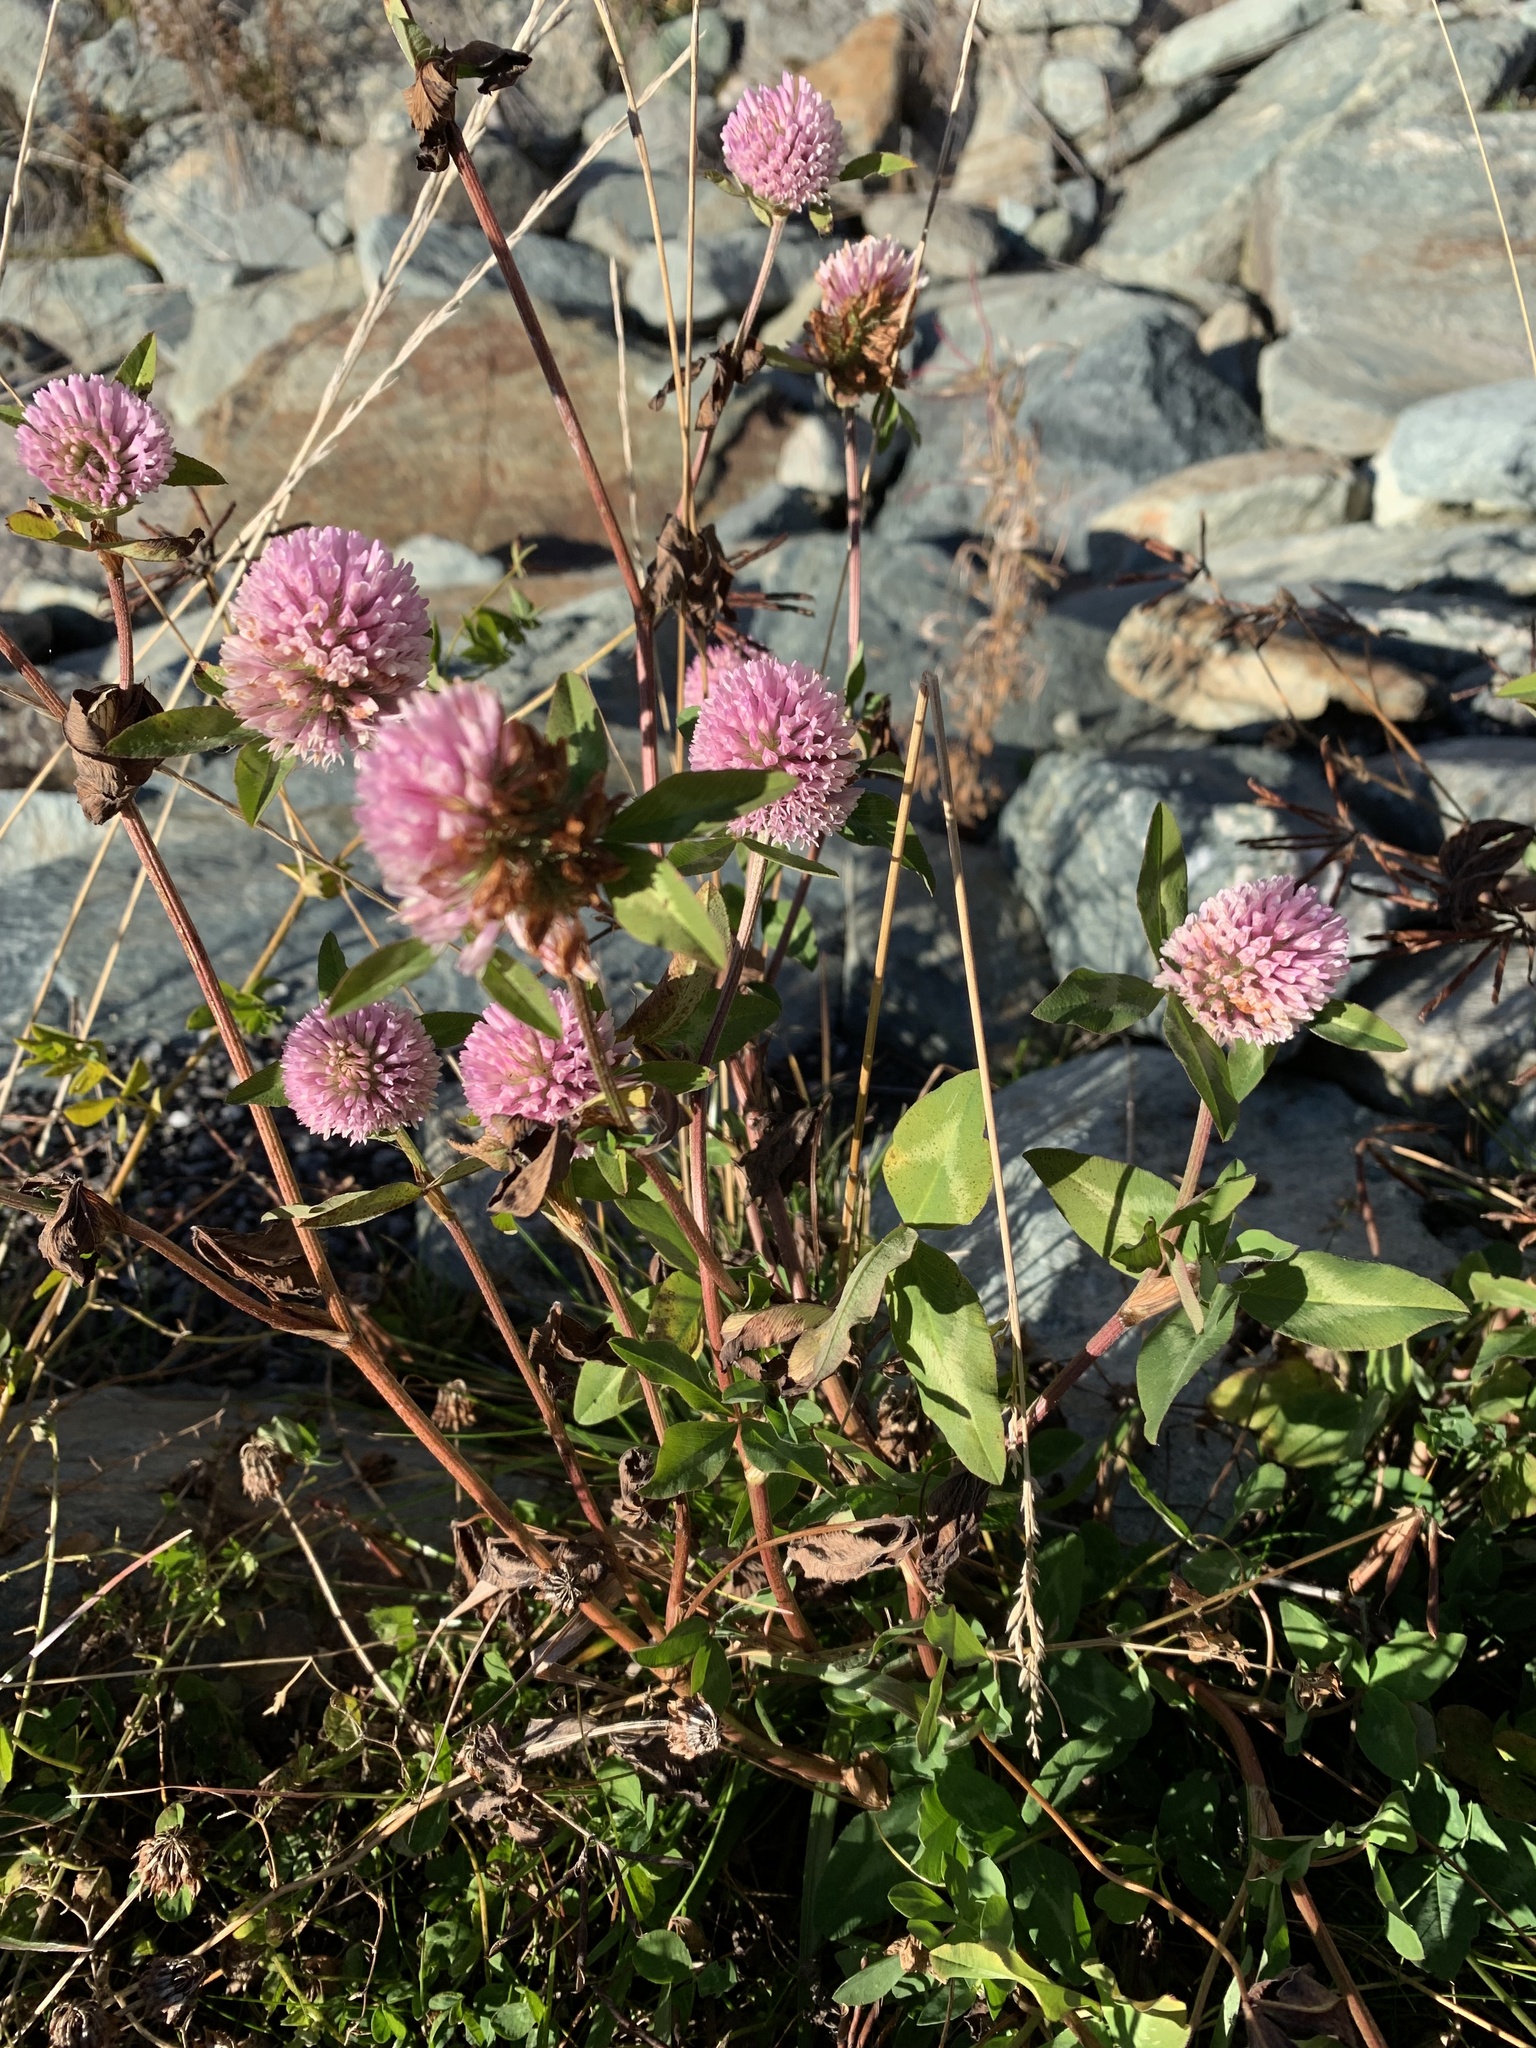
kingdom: Plantae
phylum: Tracheophyta
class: Magnoliopsida
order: Fabales
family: Fabaceae
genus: Trifolium
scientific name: Trifolium pratense
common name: Red clover
